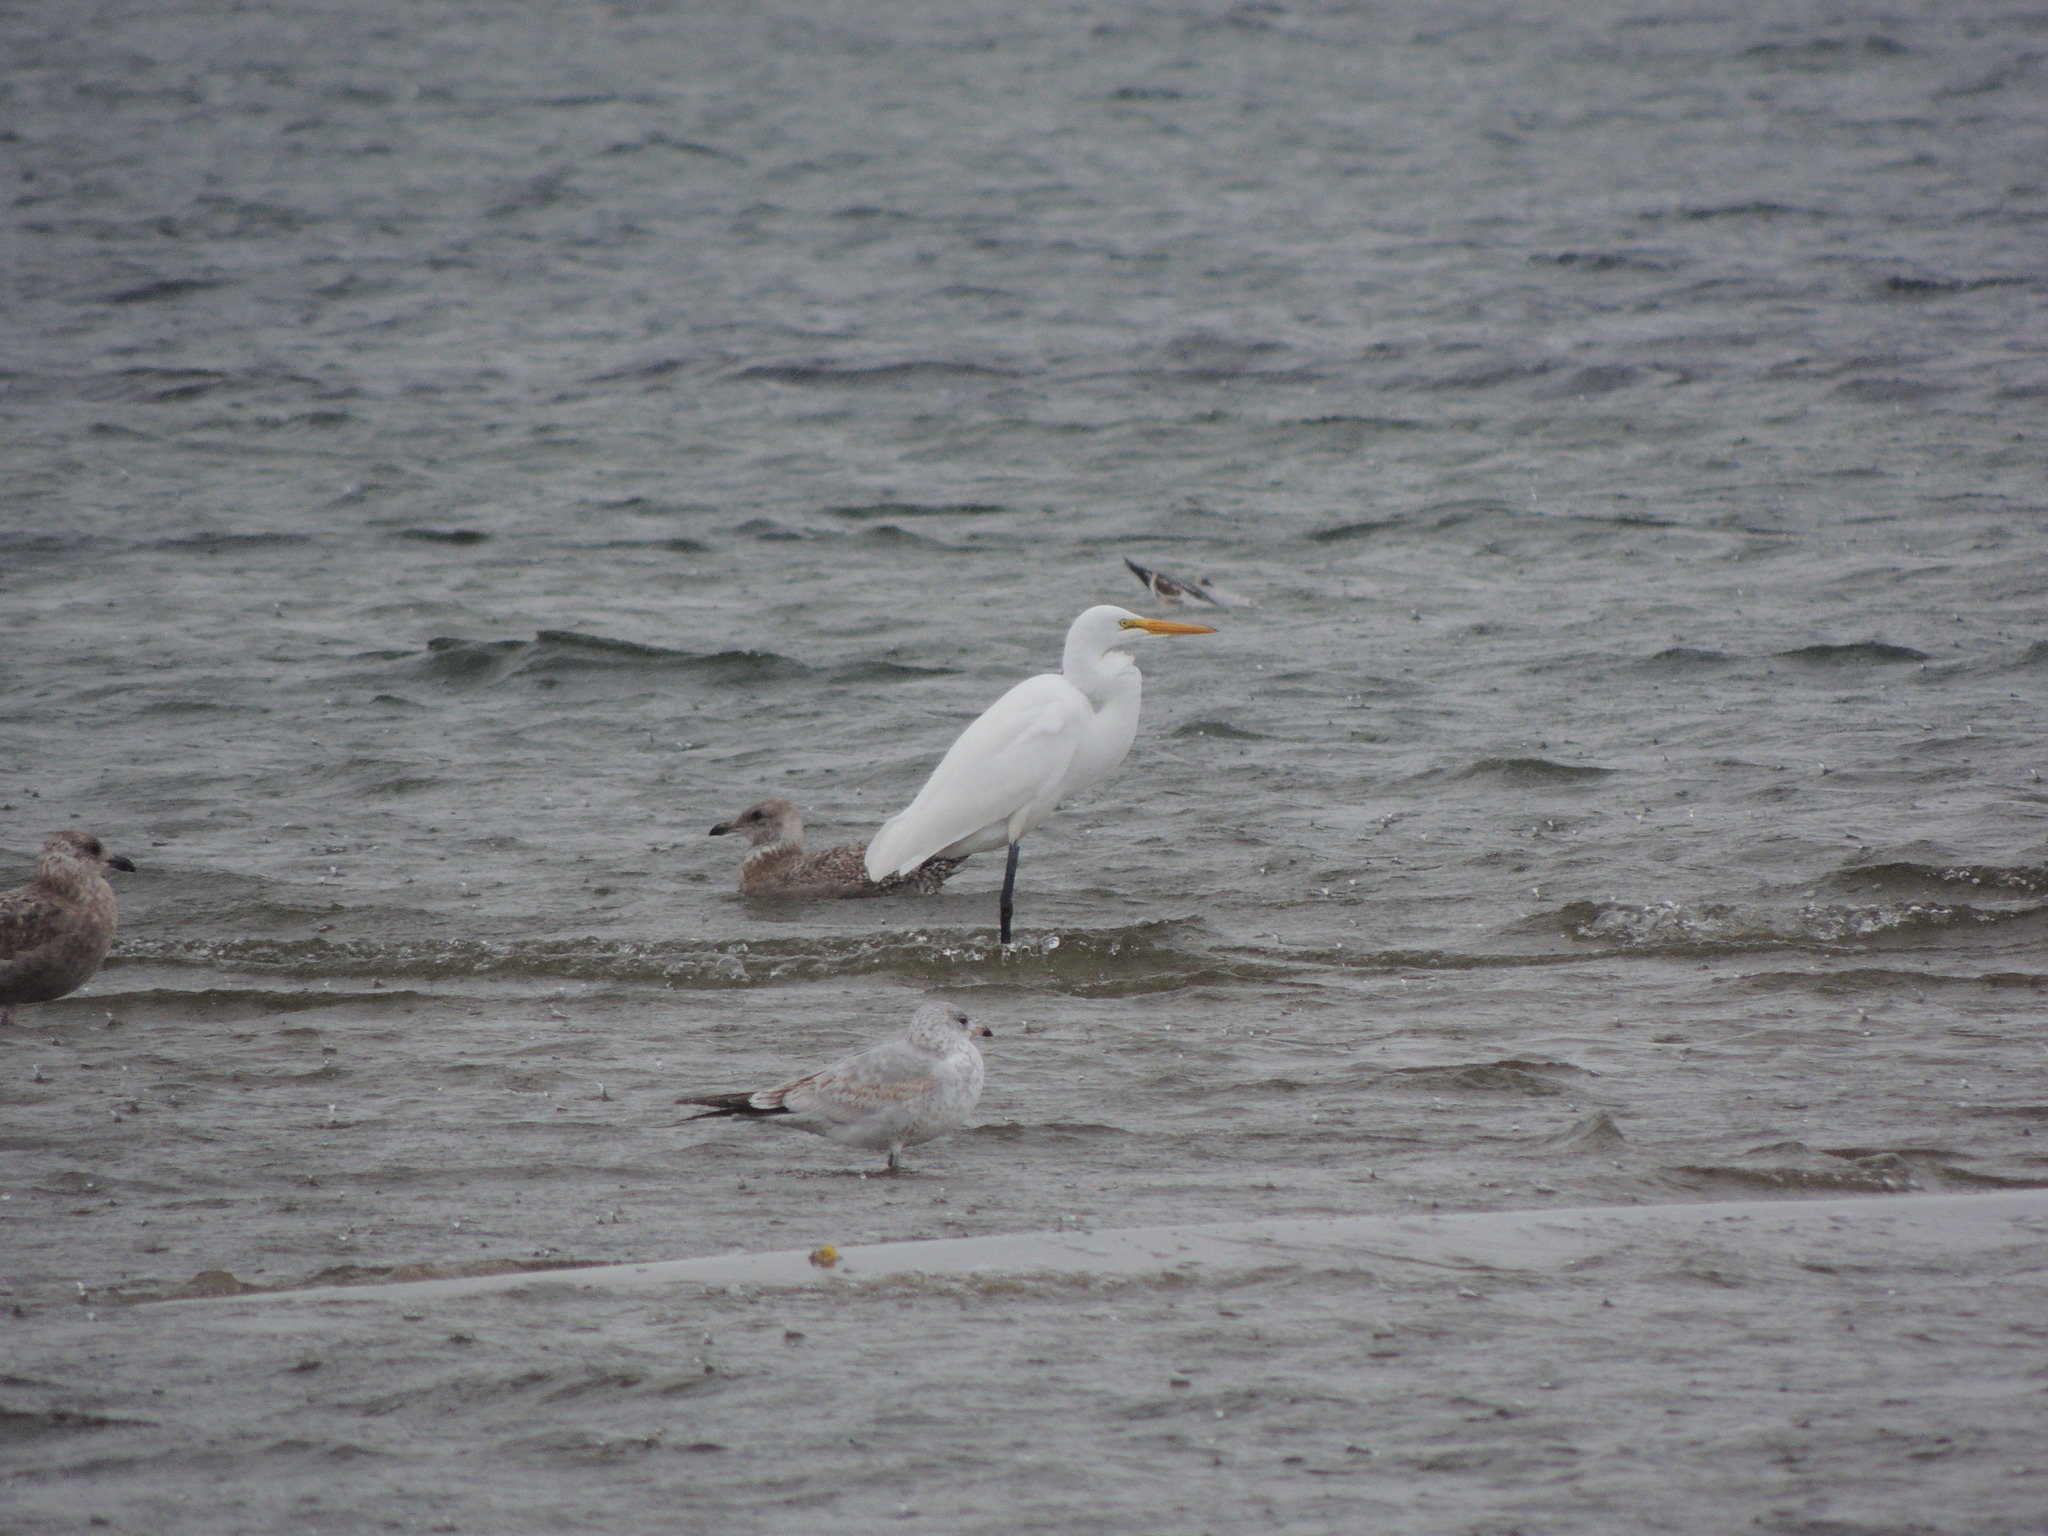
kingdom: Animalia
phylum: Chordata
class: Aves
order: Pelecaniformes
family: Ardeidae
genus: Ardea
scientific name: Ardea alba
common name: Great egret
